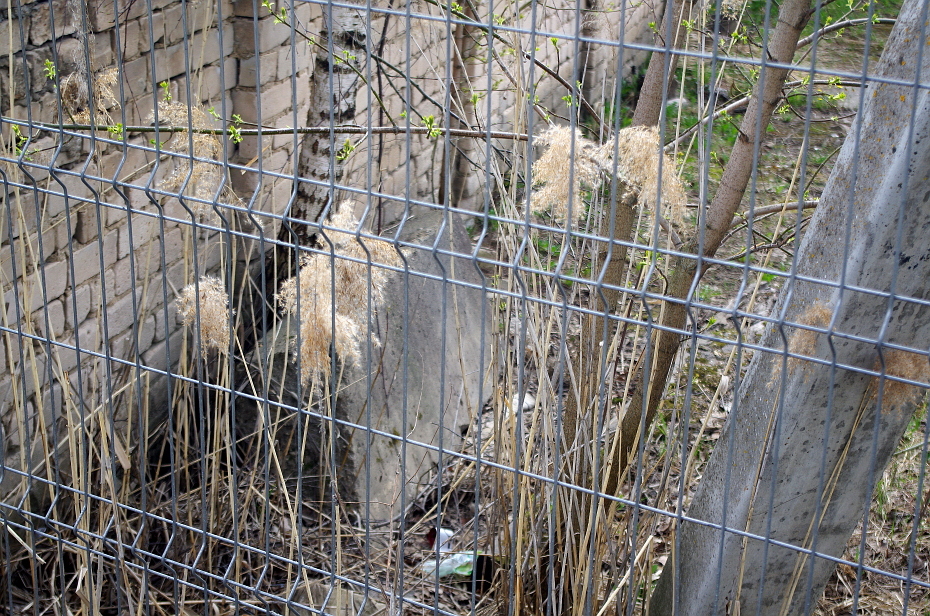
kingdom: Plantae
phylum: Tracheophyta
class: Magnoliopsida
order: Sapindales
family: Sapindaceae
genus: Acer
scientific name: Acer negundo
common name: Ashleaf maple
